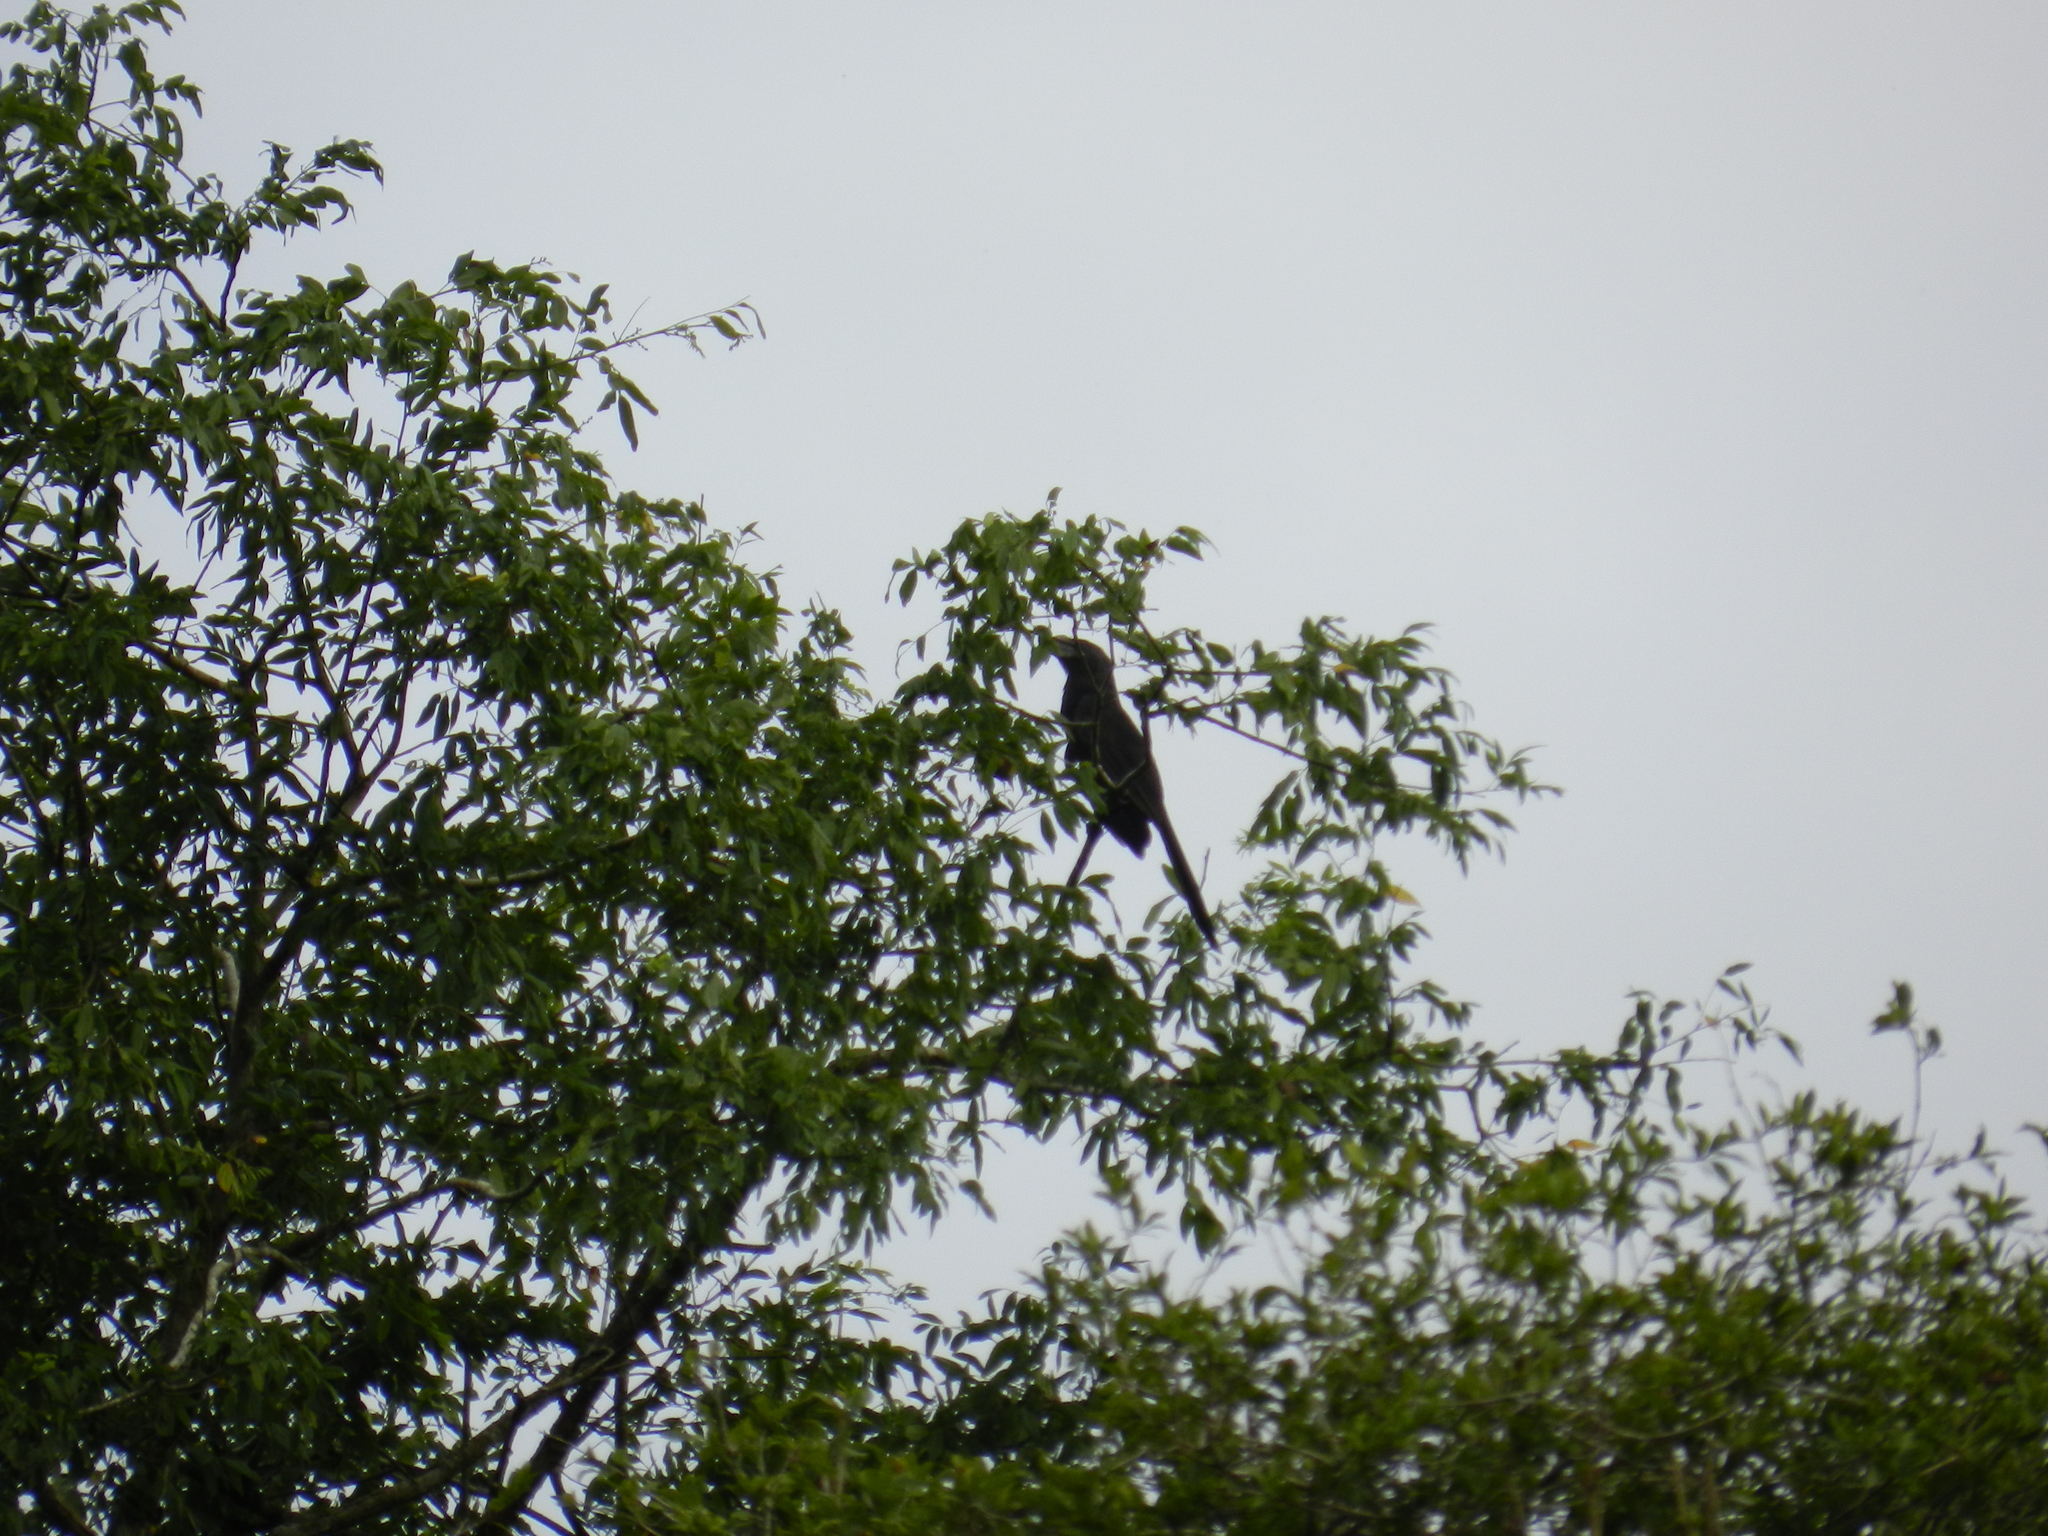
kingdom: Animalia
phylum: Chordata
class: Aves
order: Cuculiformes
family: Cuculidae
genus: Crotophaga
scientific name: Crotophaga ani
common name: Smooth-billed ani
